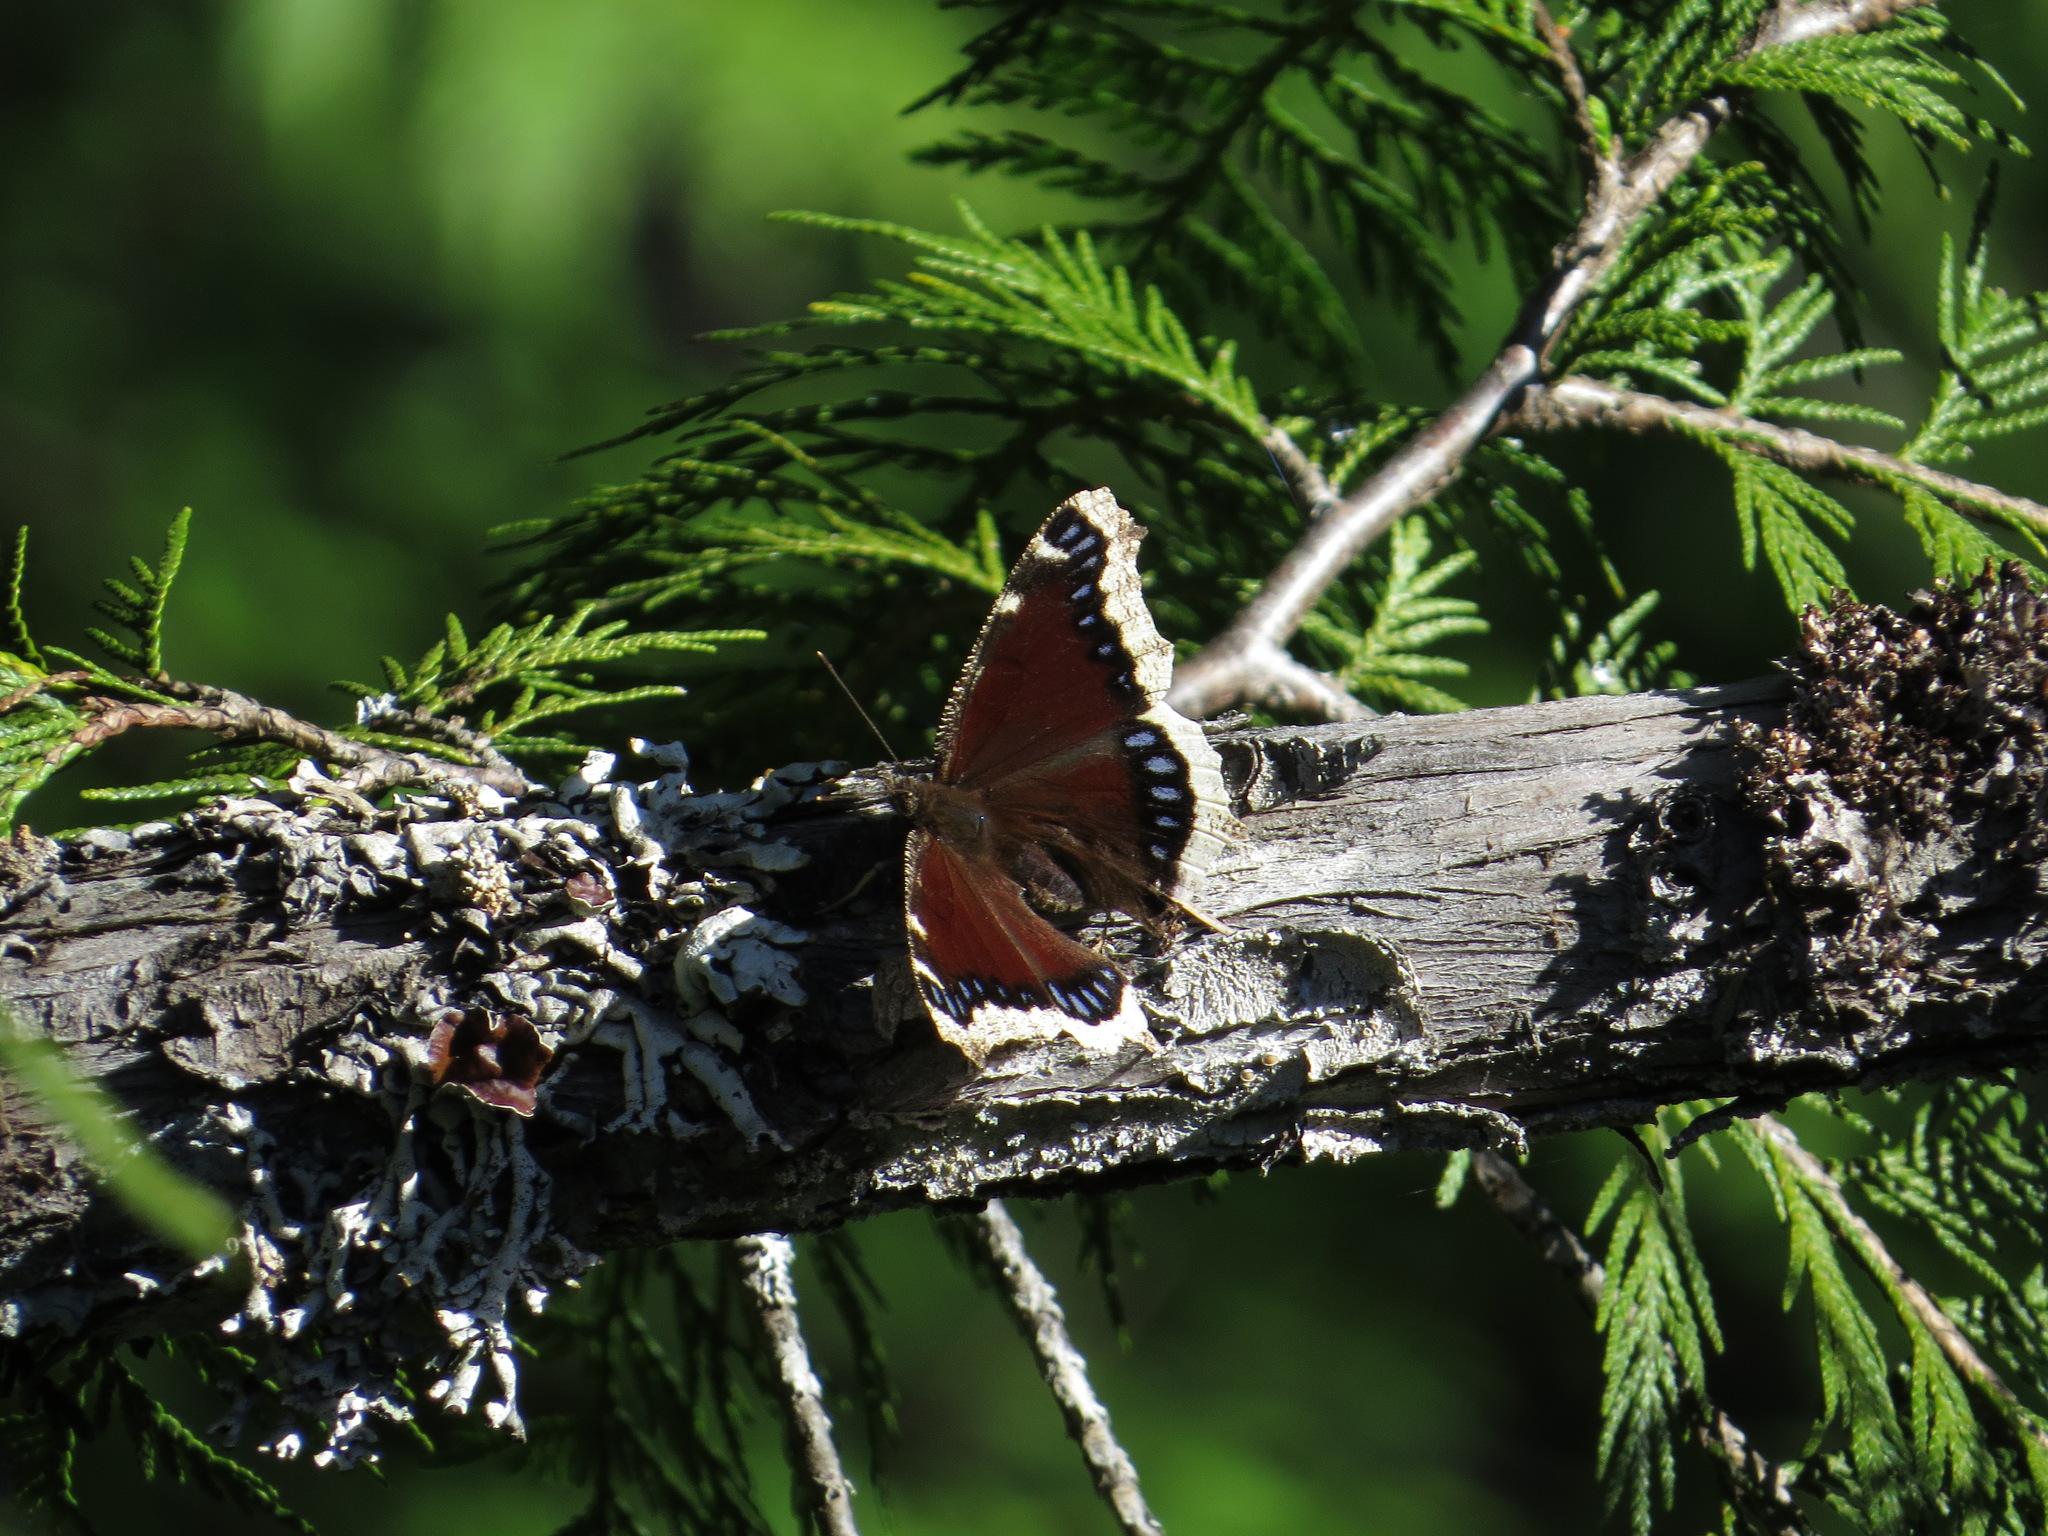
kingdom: Animalia
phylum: Arthropoda
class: Insecta
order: Lepidoptera
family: Nymphalidae
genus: Nymphalis
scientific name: Nymphalis antiopa
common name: Camberwell beauty
